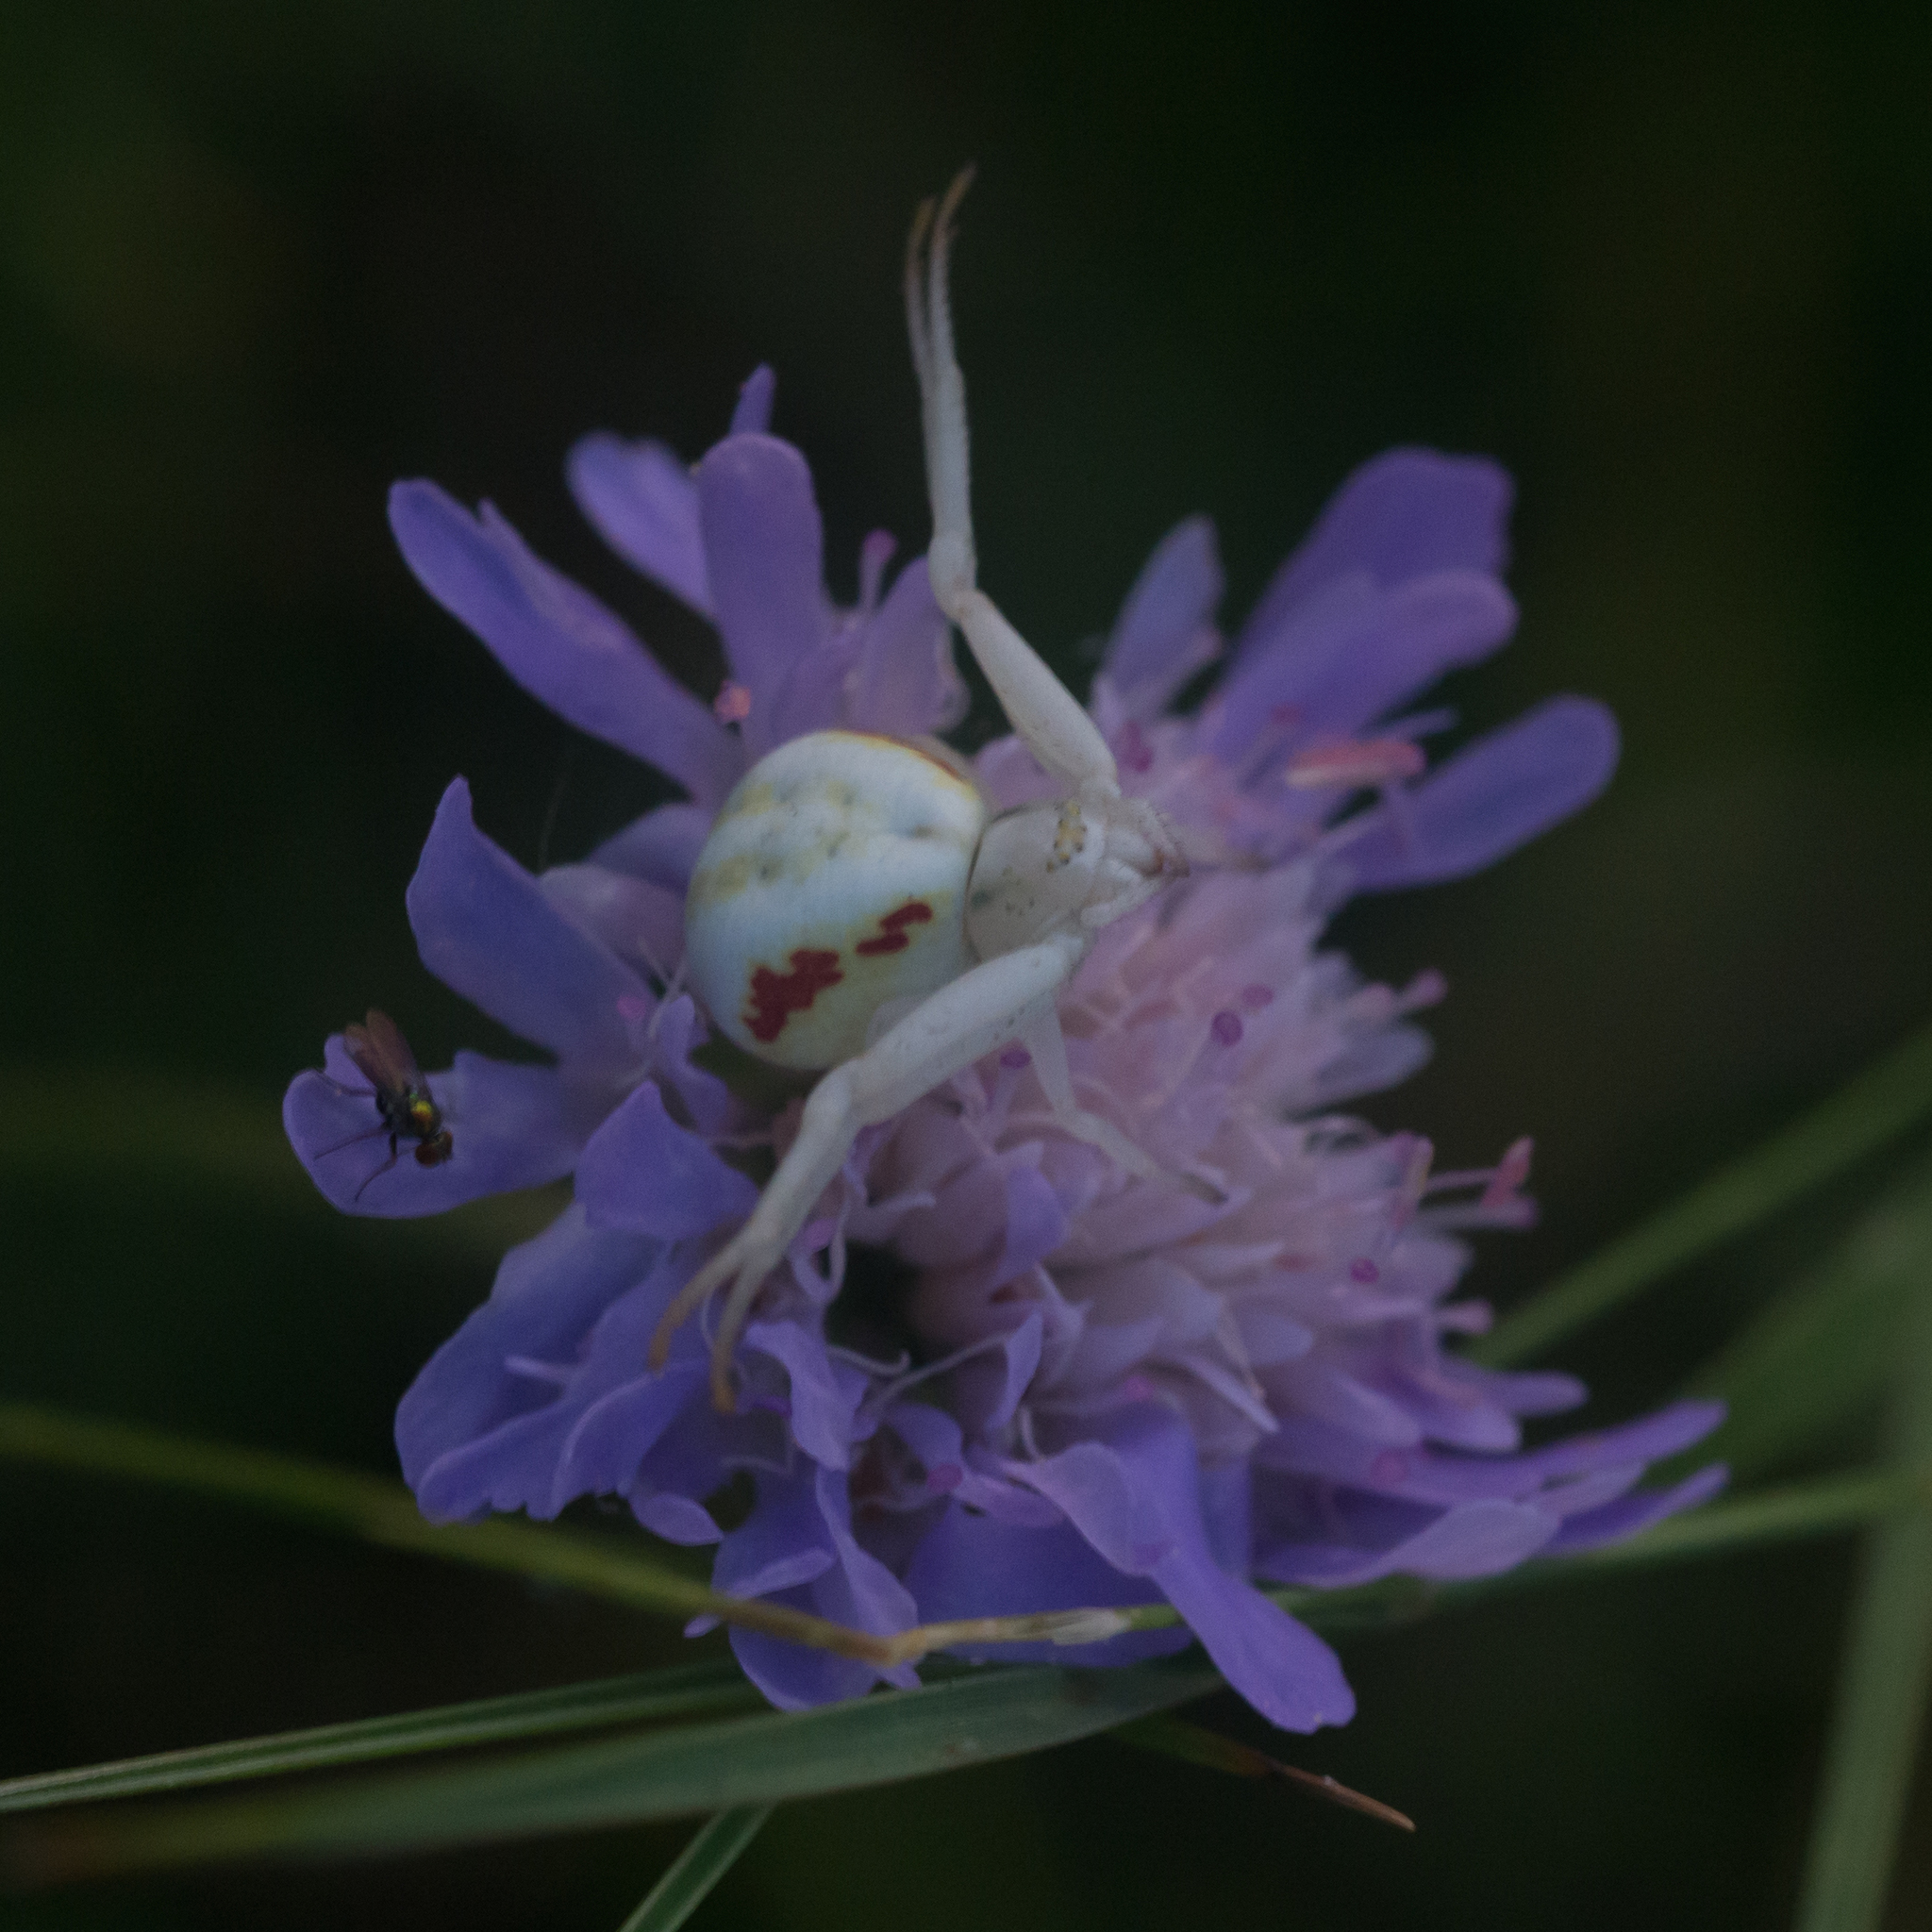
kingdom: Animalia
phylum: Arthropoda
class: Arachnida
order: Araneae
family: Thomisidae
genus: Misumena
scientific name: Misumena vatia
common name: Goldenrod crab spider
